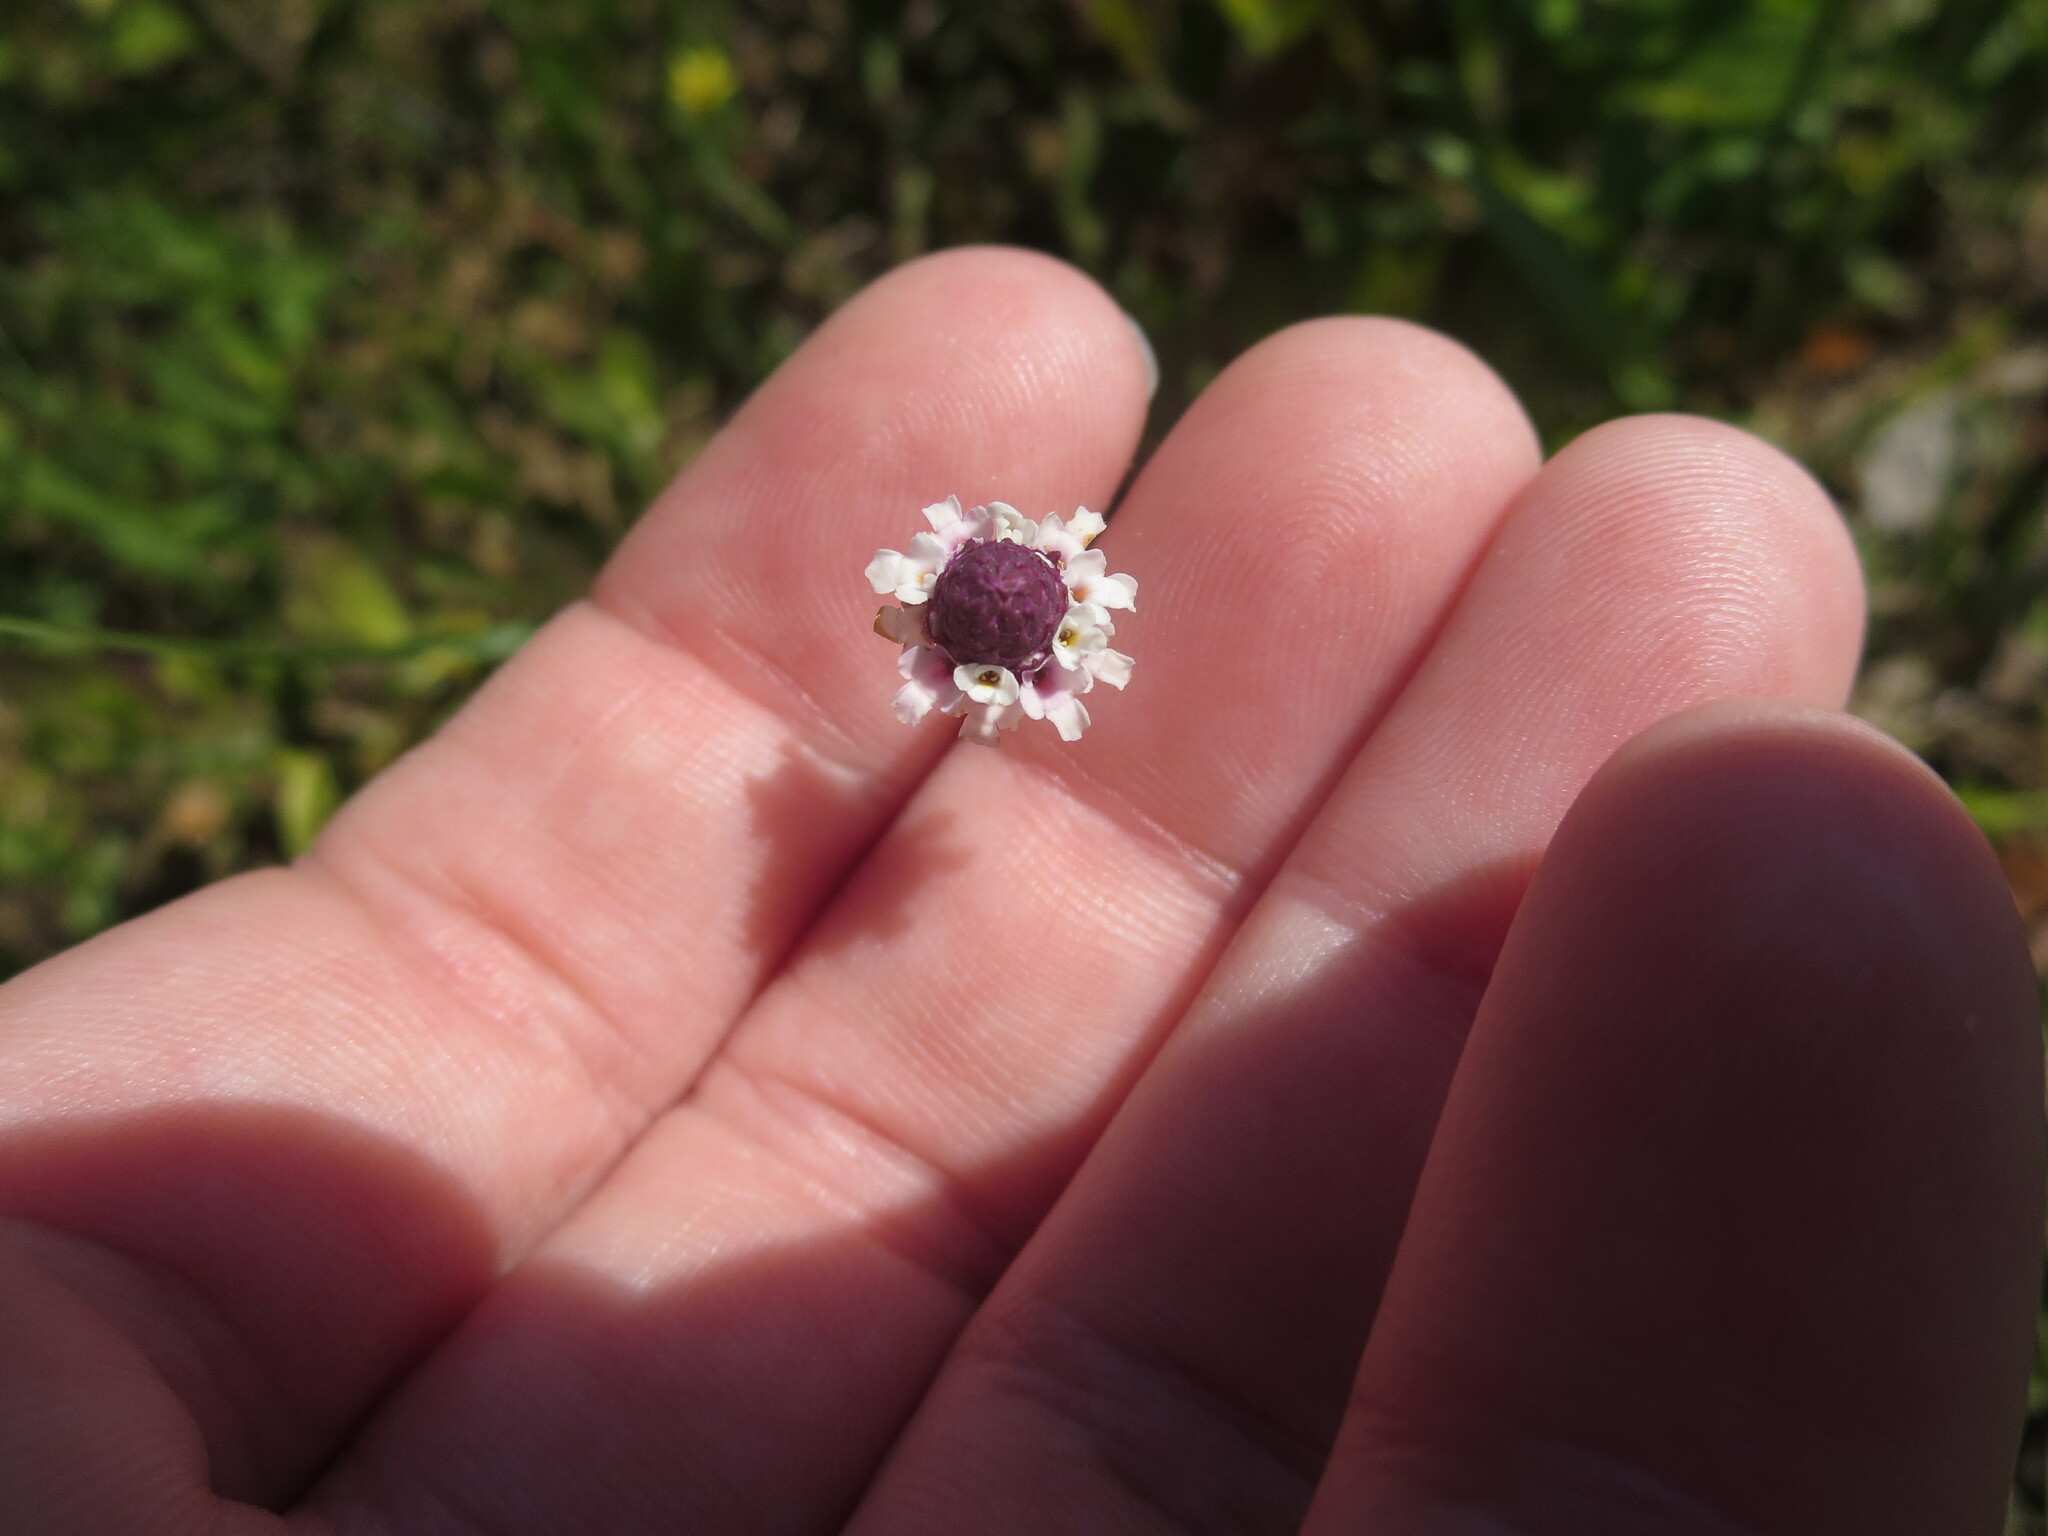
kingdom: Plantae
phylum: Tracheophyta
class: Magnoliopsida
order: Lamiales
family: Verbenaceae
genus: Phyla
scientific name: Phyla nodiflora
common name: Frogfruit
